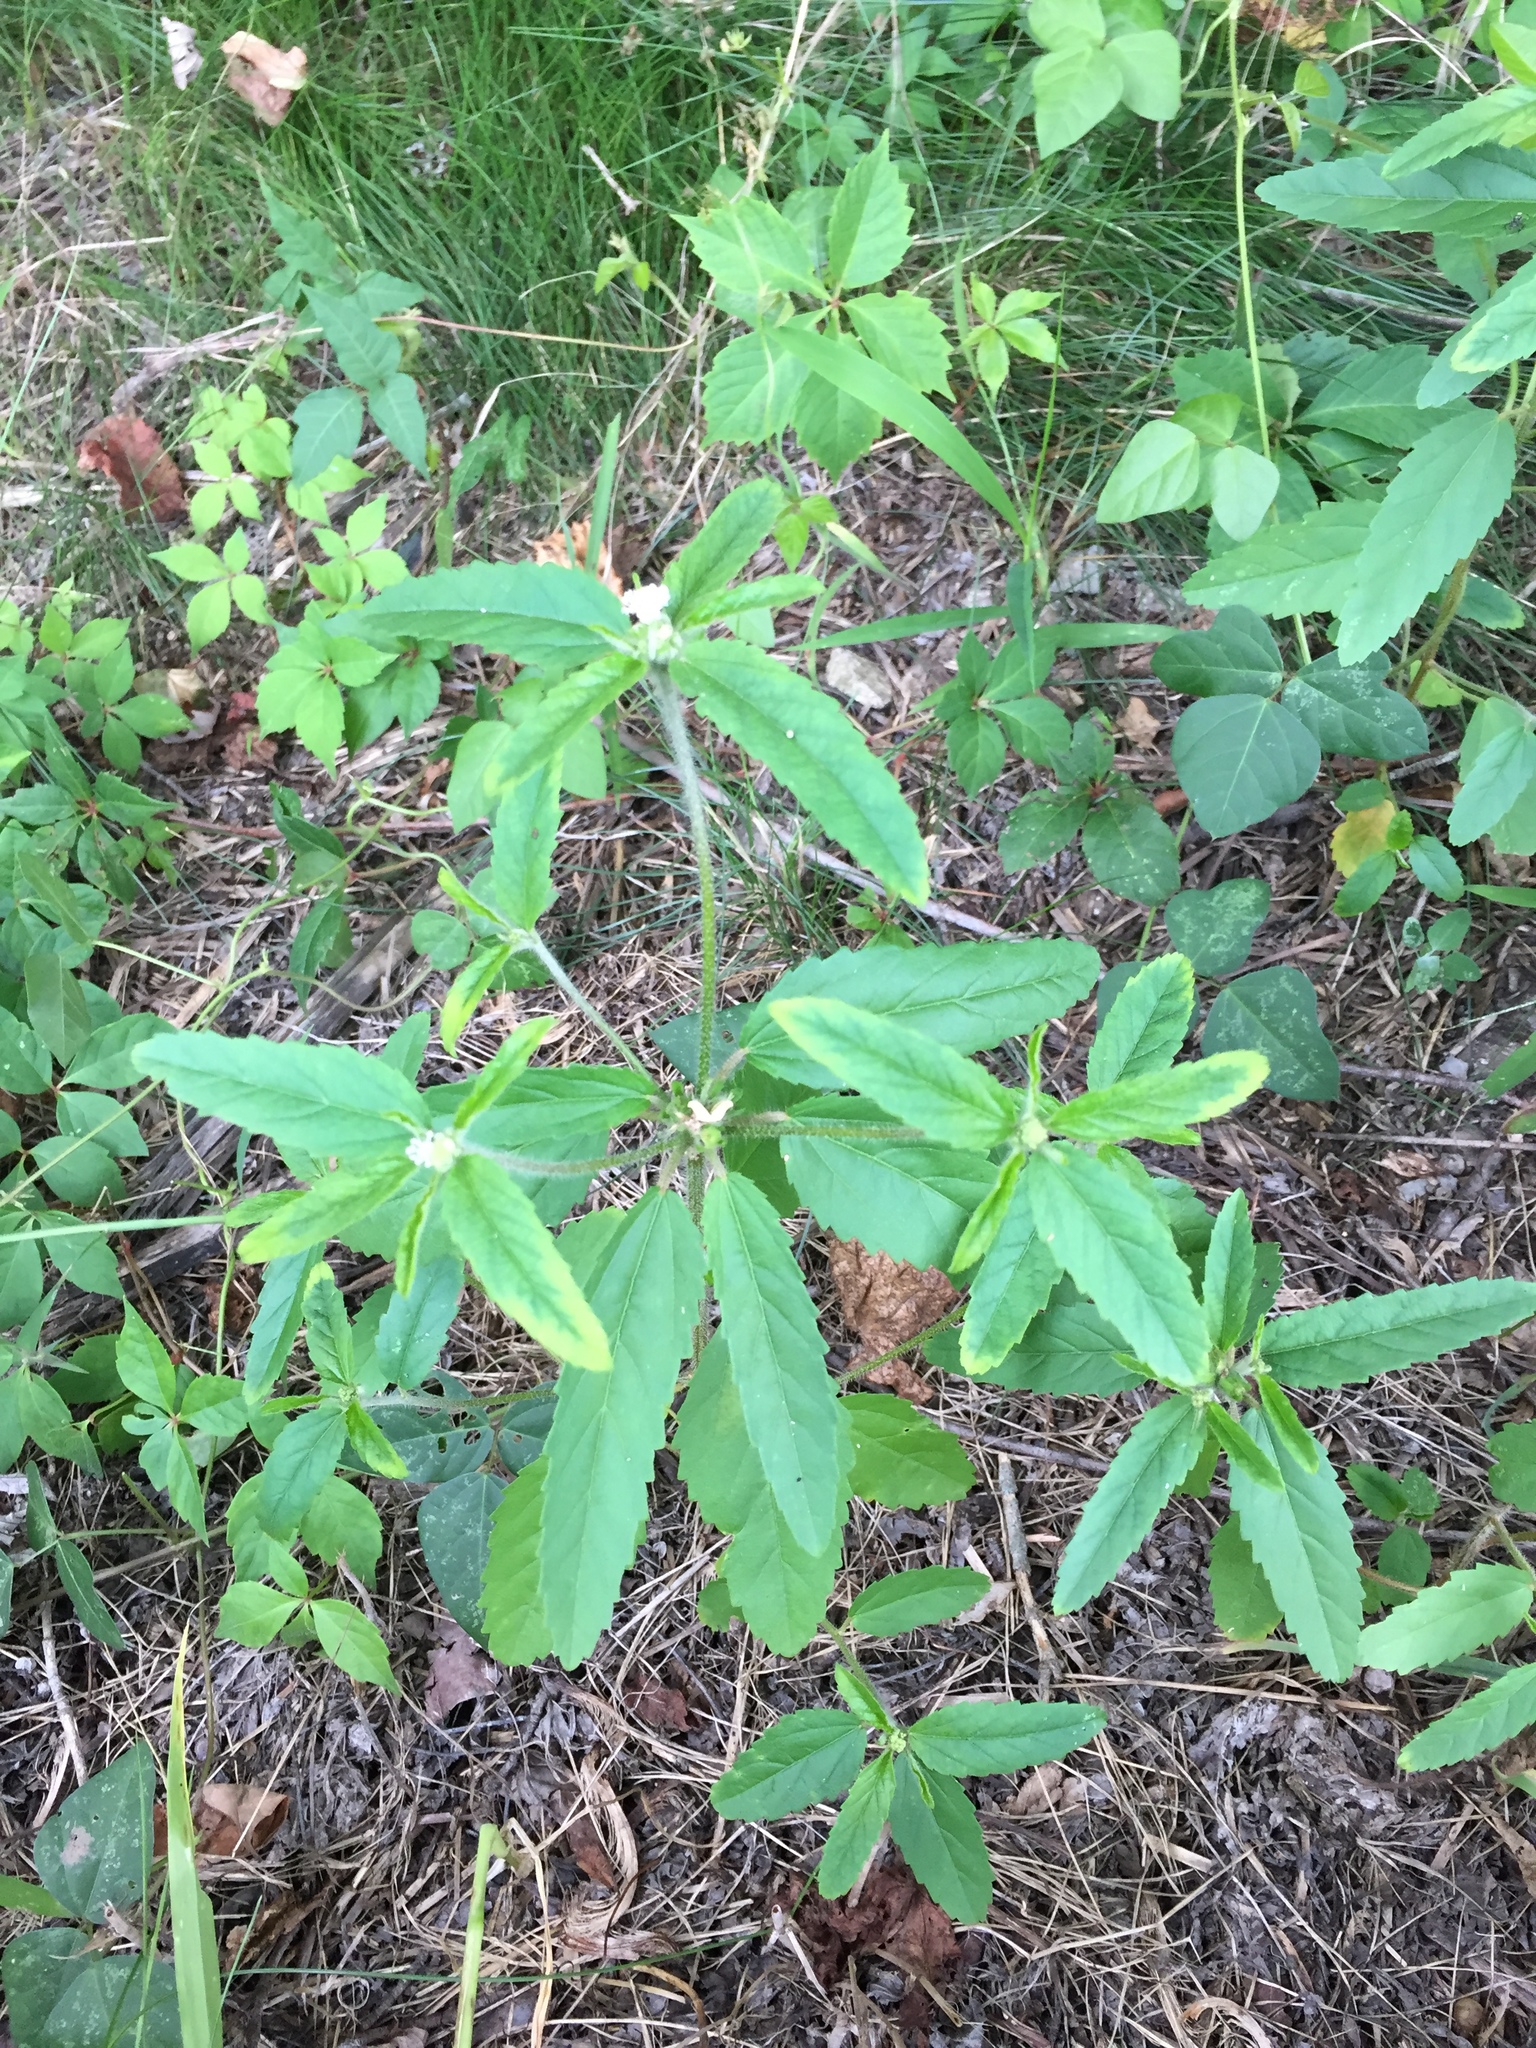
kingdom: Plantae
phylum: Tracheophyta
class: Magnoliopsida
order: Malpighiales
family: Euphorbiaceae
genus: Croton
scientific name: Croton glandulosus
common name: Tropic croton
